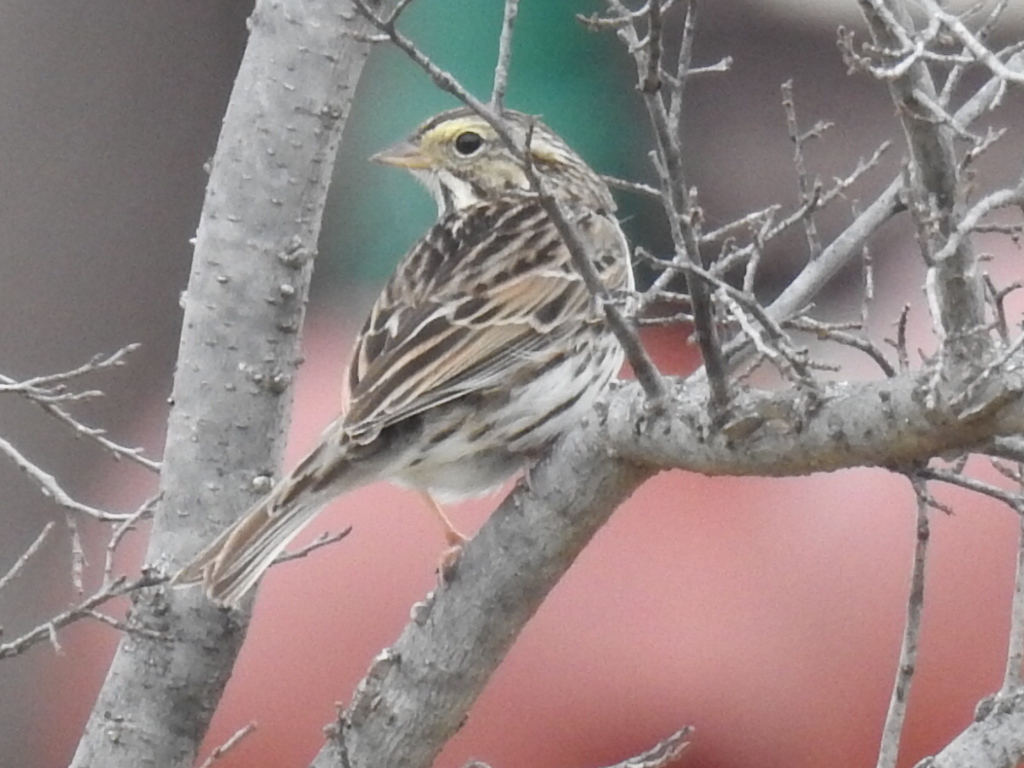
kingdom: Animalia
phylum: Chordata
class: Aves
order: Passeriformes
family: Passerellidae
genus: Passerculus
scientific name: Passerculus sandwichensis
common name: Savannah sparrow
